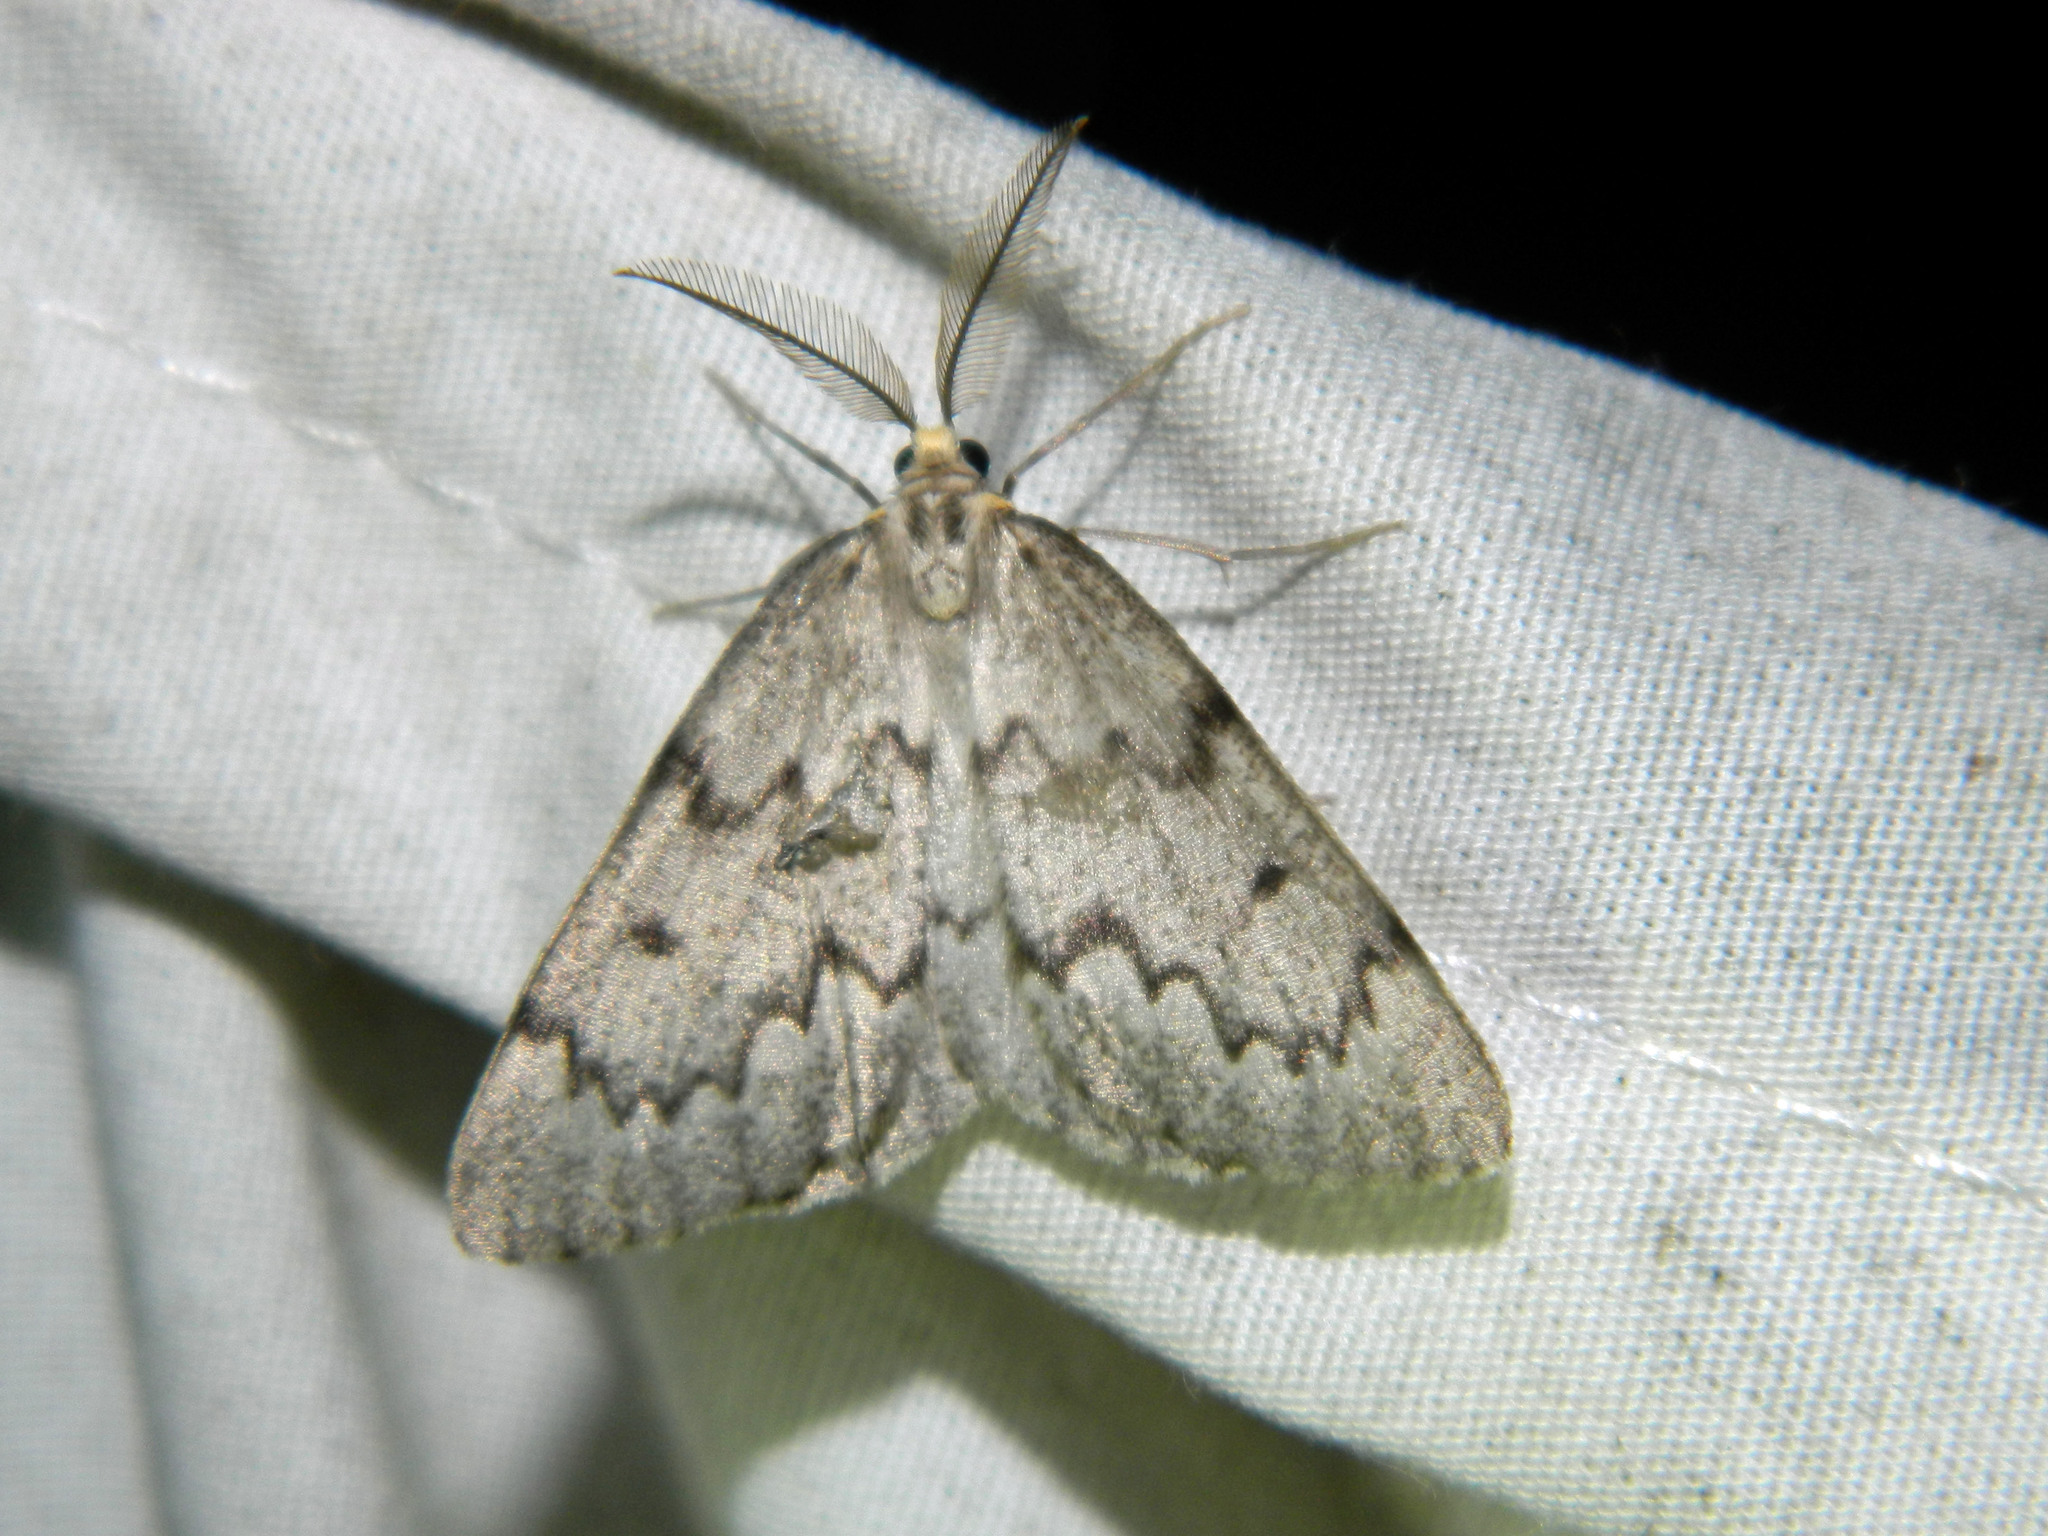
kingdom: Animalia
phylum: Arthropoda
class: Insecta
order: Lepidoptera
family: Geometridae
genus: Nepytia
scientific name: Nepytia canosaria
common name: False hemlock looper
